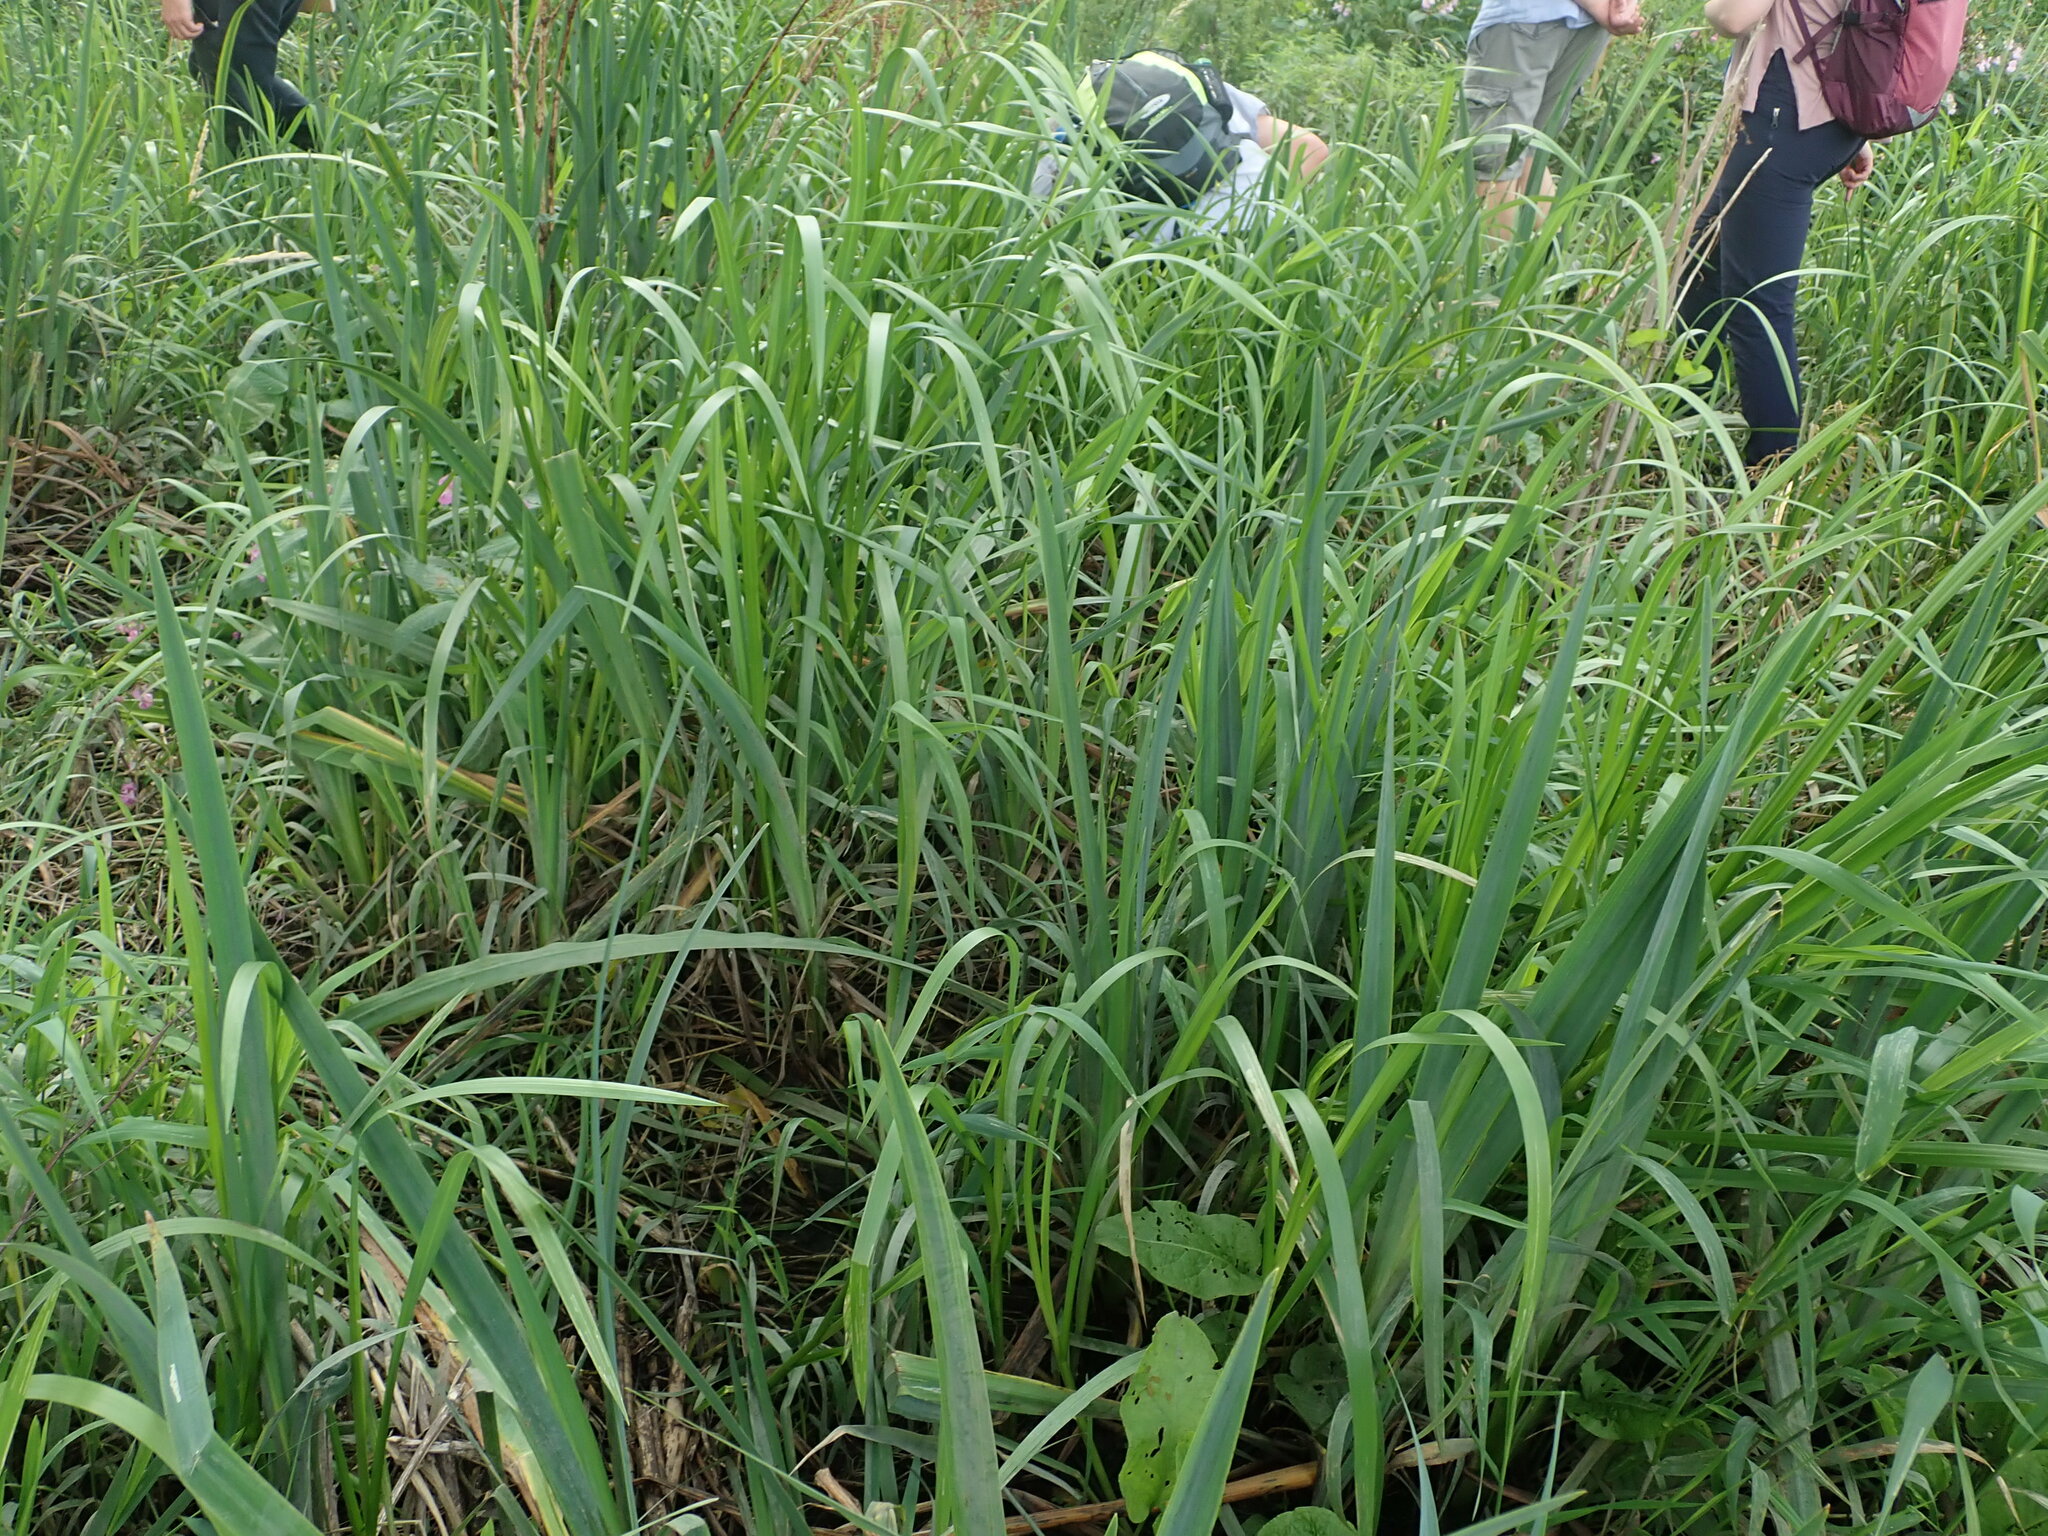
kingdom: Plantae
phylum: Tracheophyta
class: Liliopsida
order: Asparagales
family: Iridaceae
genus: Iris
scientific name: Iris pseudacorus
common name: Yellow flag
